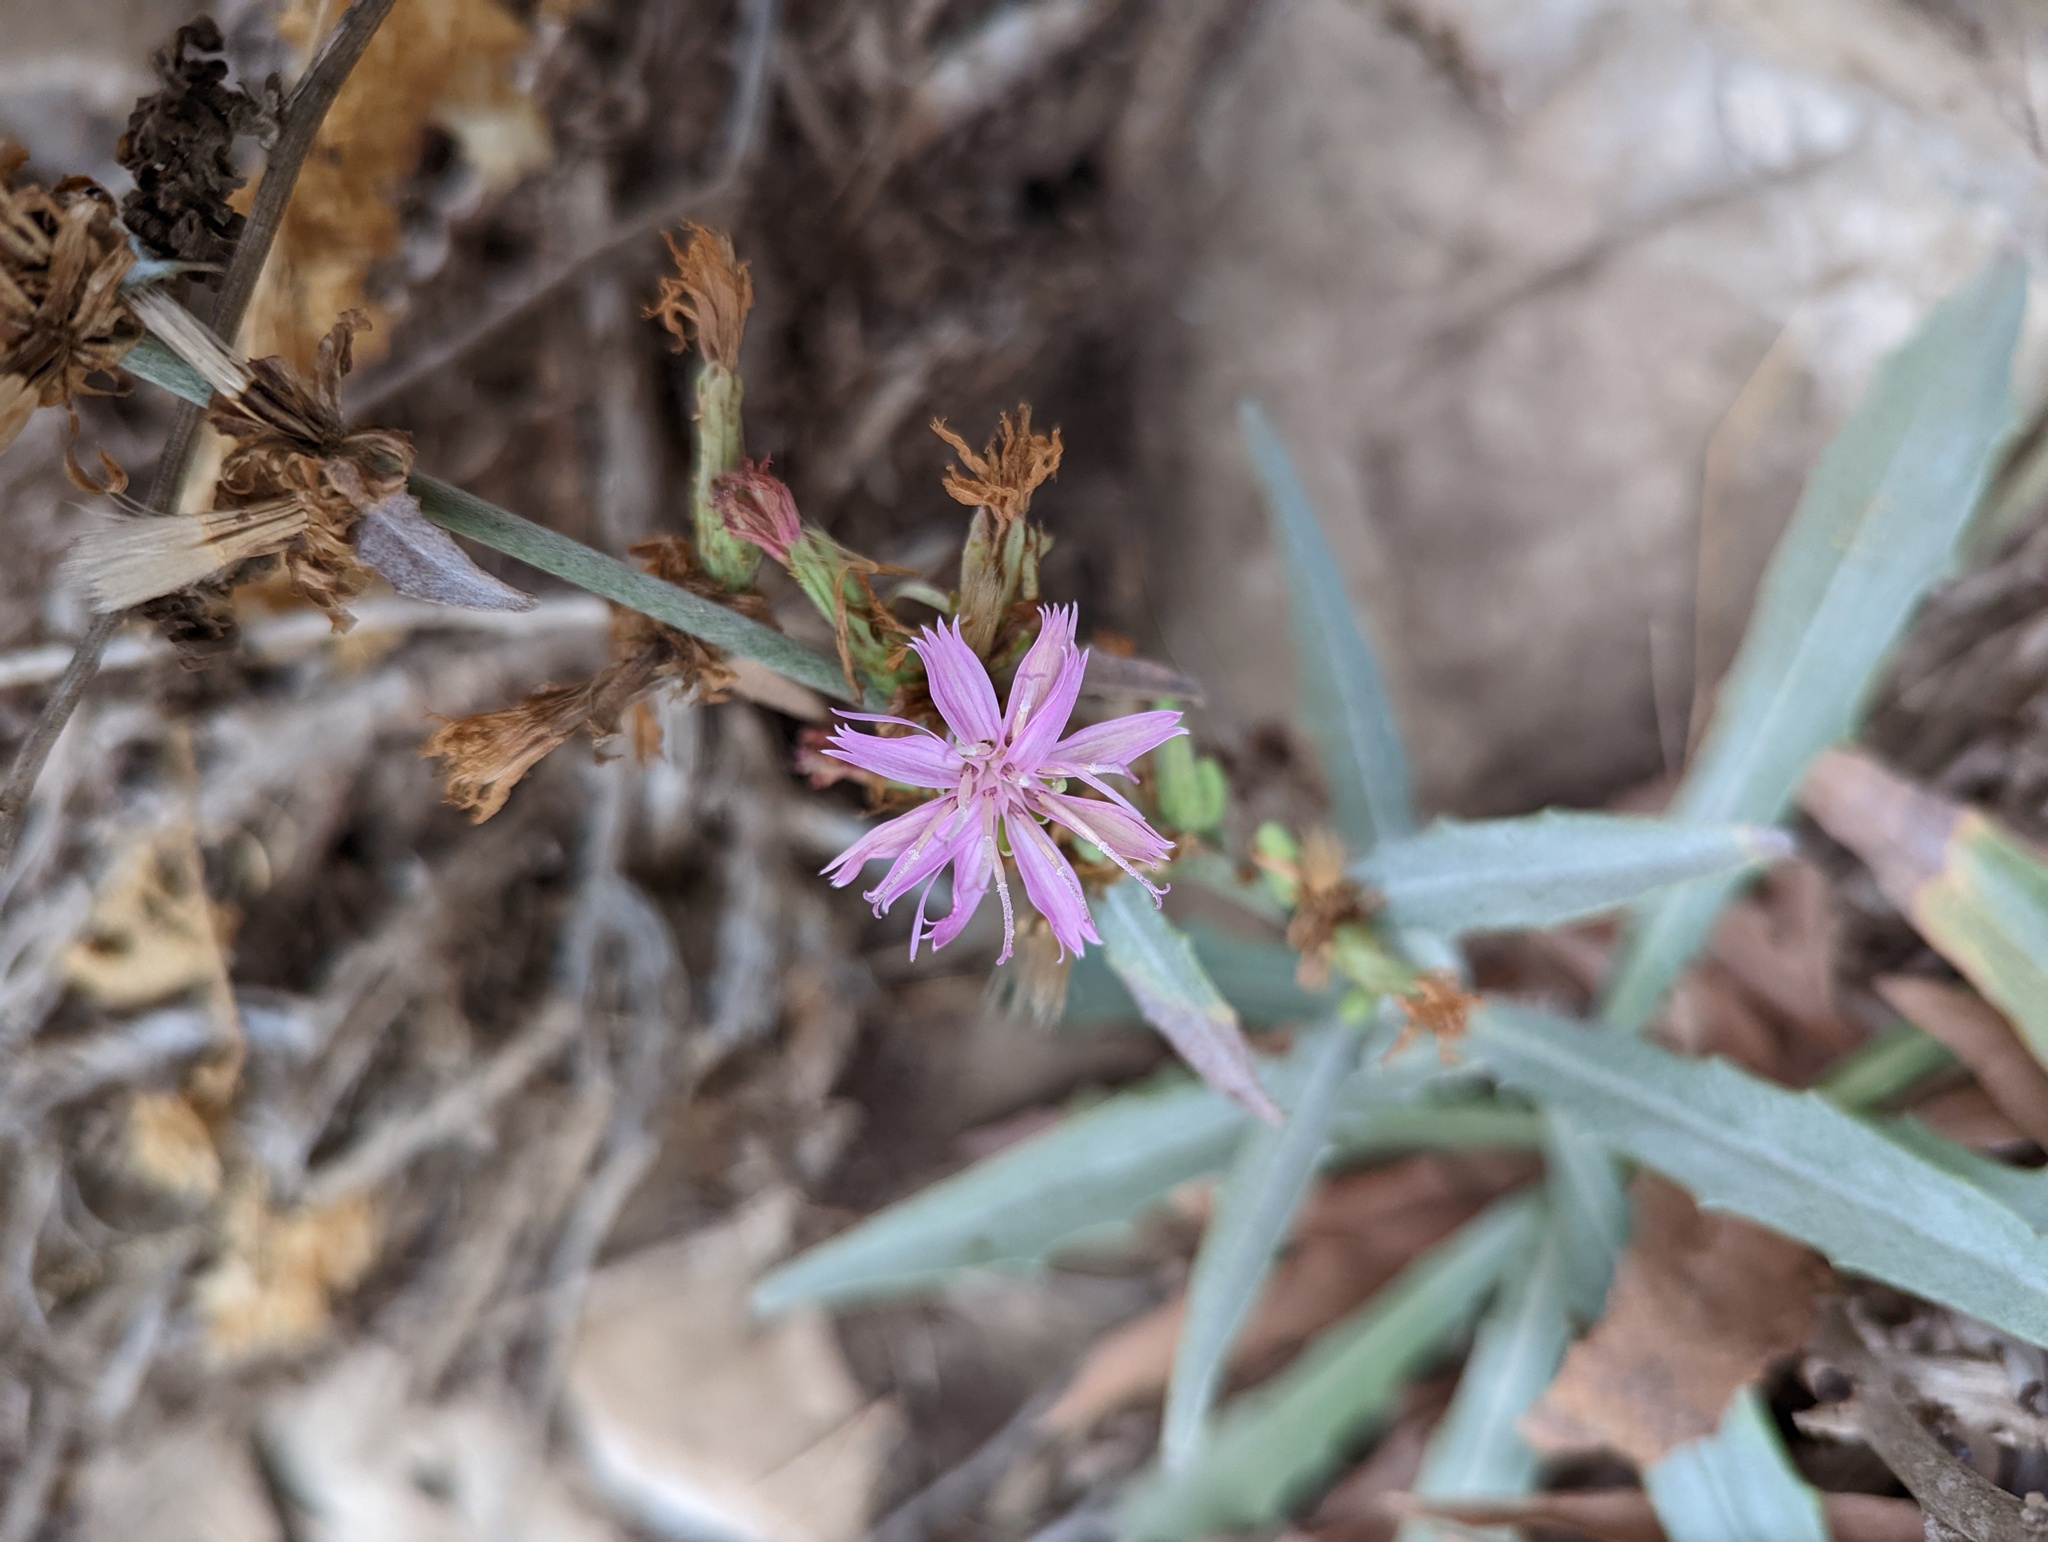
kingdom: Plantae
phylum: Tracheophyta
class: Magnoliopsida
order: Asterales
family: Asteraceae
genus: Stephanomeria
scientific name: Stephanomeria cichoriacea
